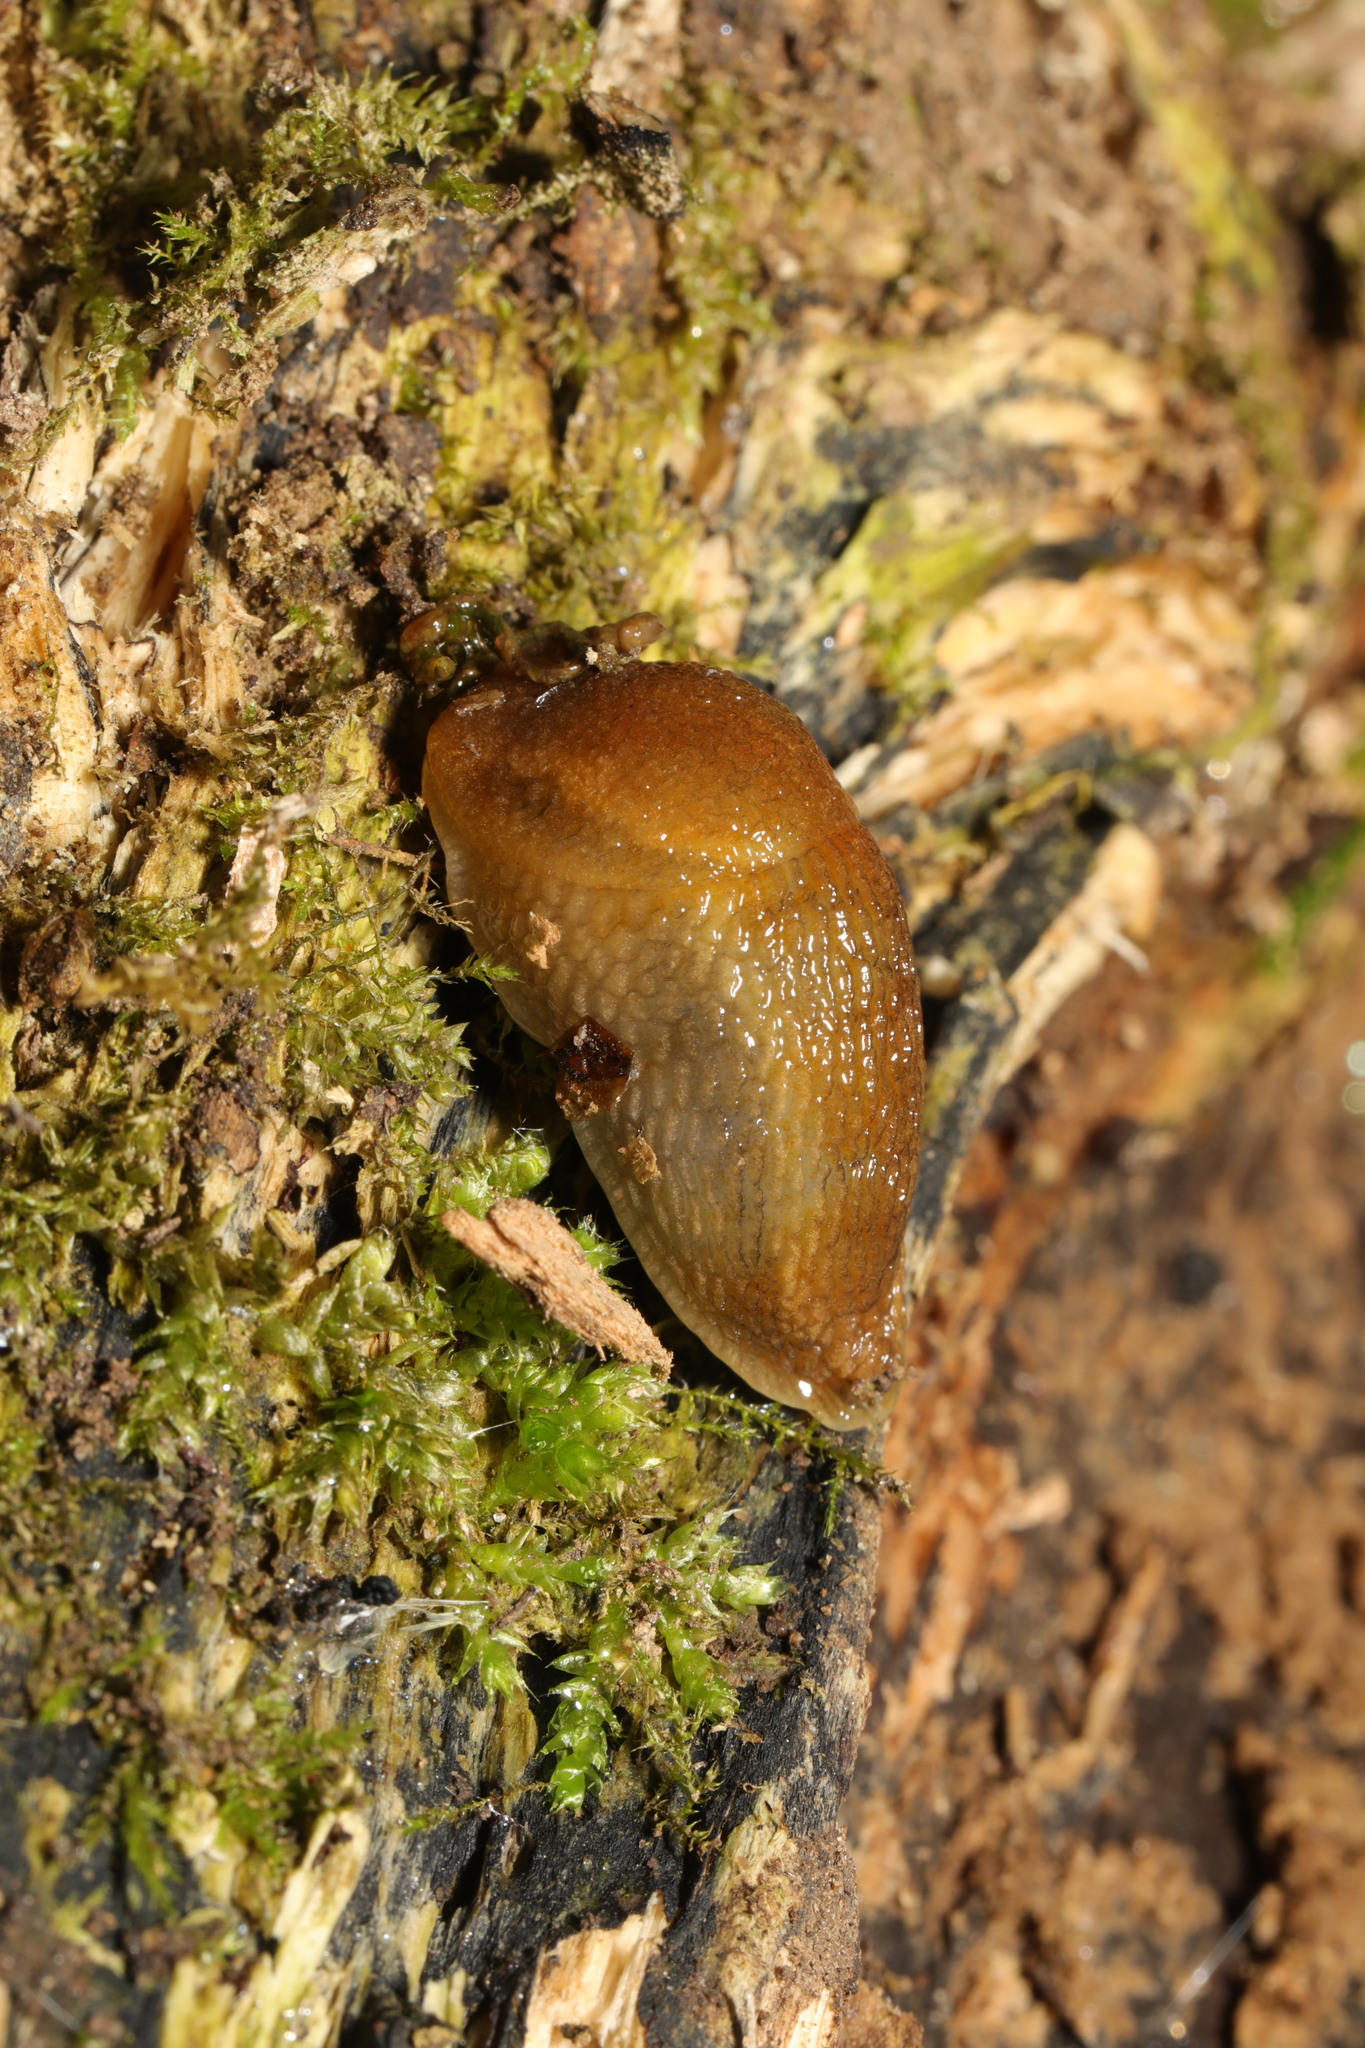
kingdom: Animalia
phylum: Mollusca
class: Gastropoda
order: Stylommatophora
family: Arionidae
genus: Arion
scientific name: Arion subfuscus
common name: Dusky arion
